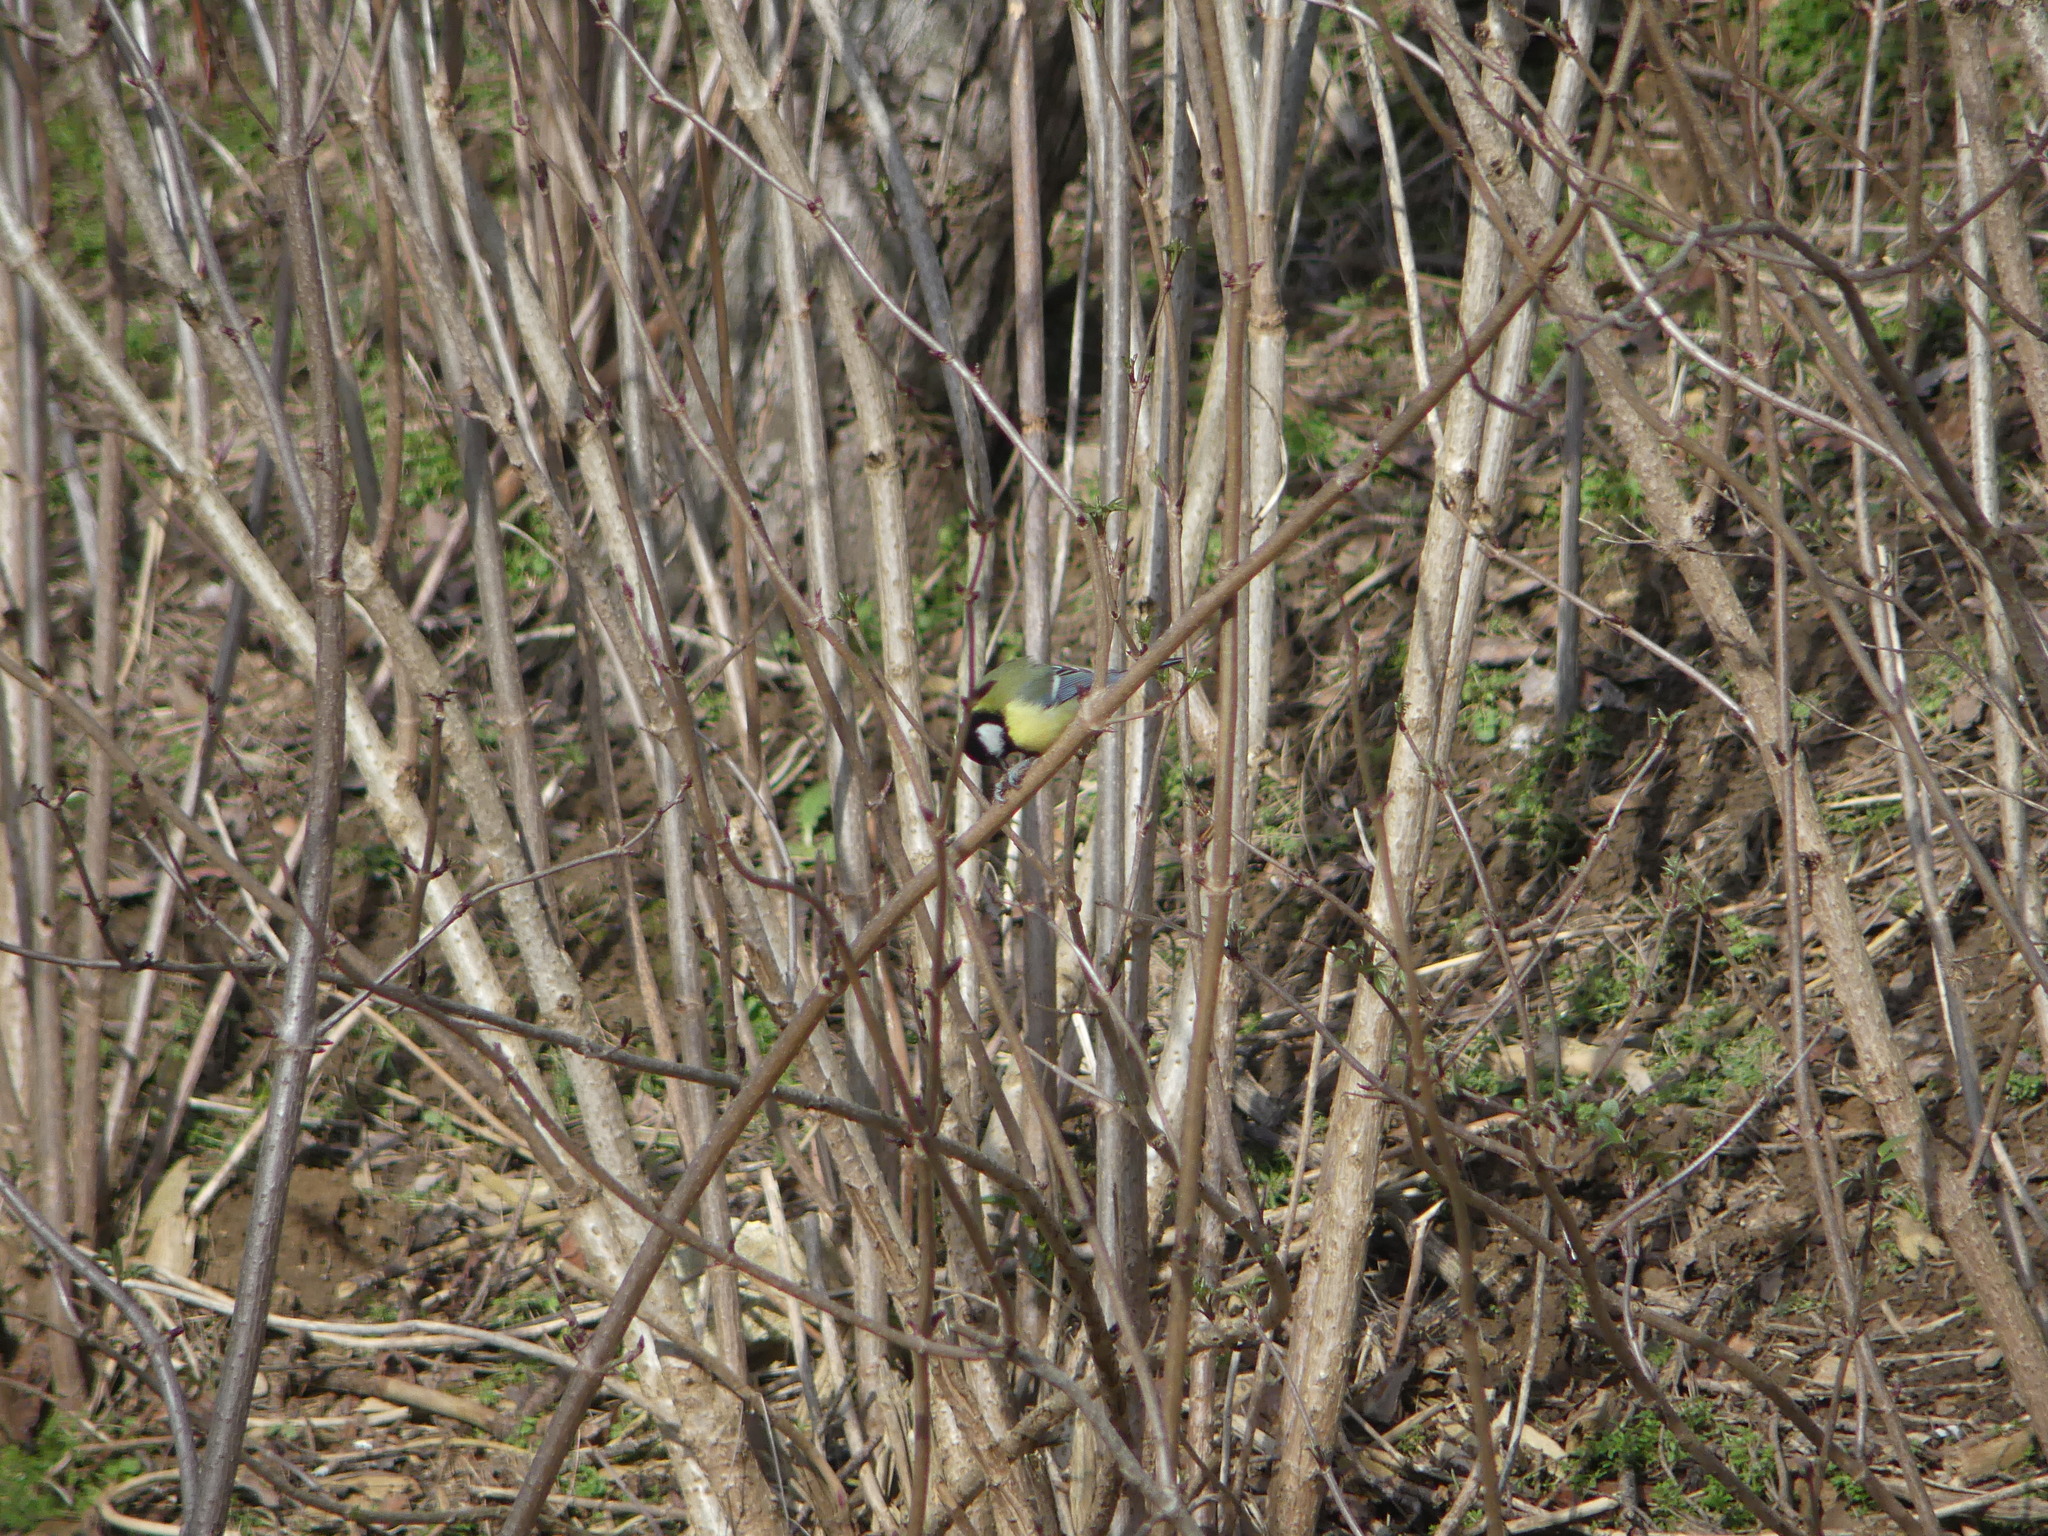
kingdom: Animalia
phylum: Chordata
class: Aves
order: Passeriformes
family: Paridae
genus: Parus
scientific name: Parus major
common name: Great tit
